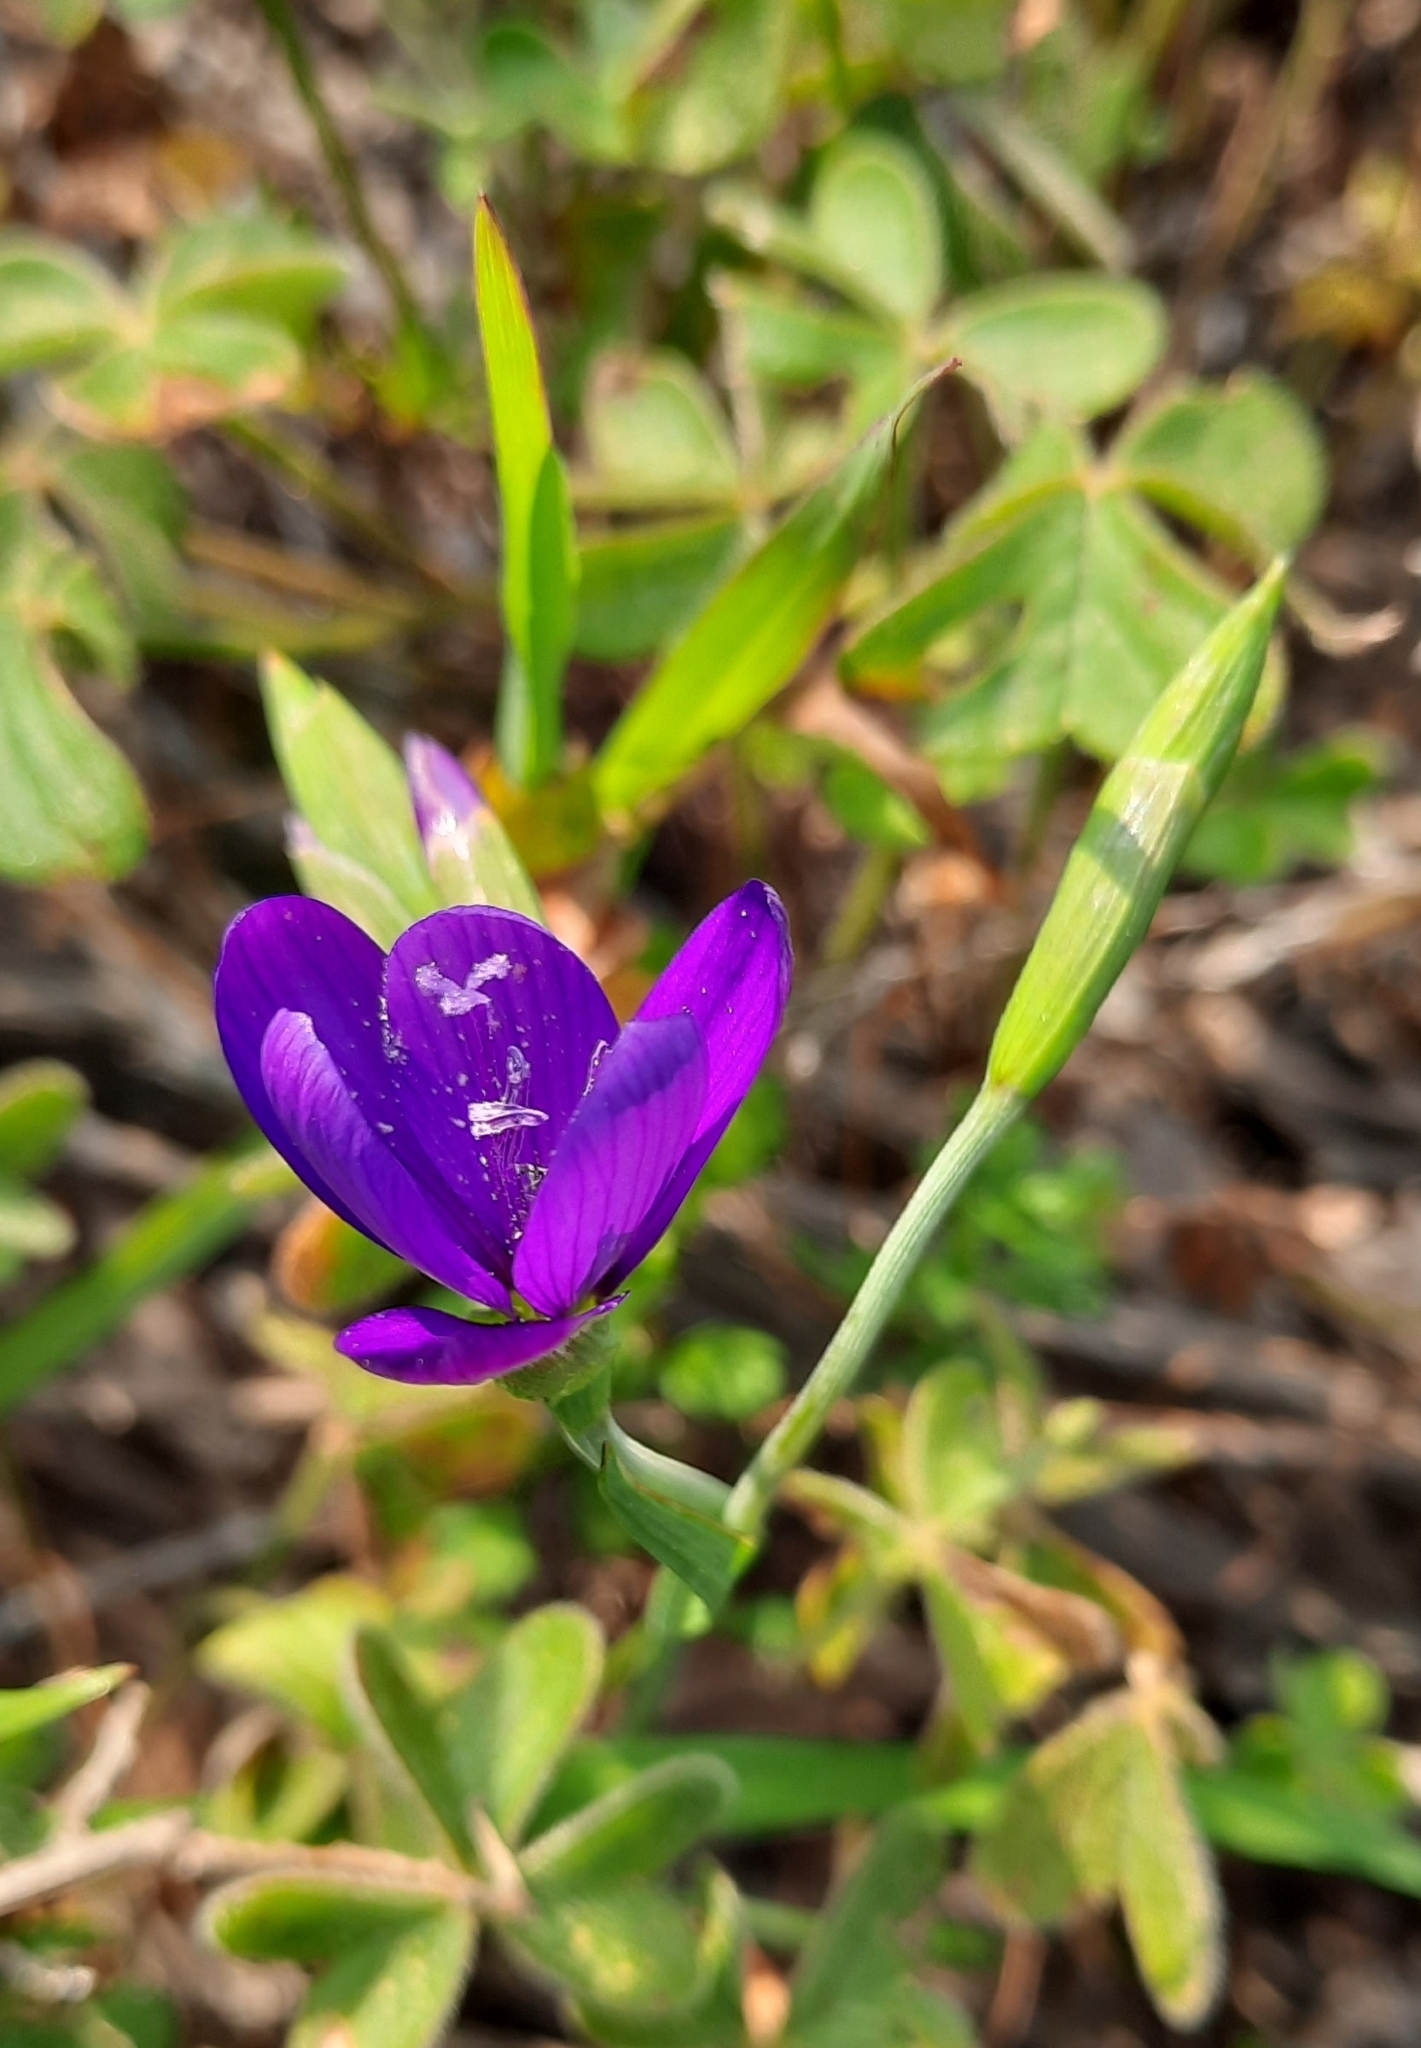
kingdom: Plantae
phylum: Tracheophyta
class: Liliopsida
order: Asparagales
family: Iridaceae
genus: Geissorhiza
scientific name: Geissorhiza aspera
